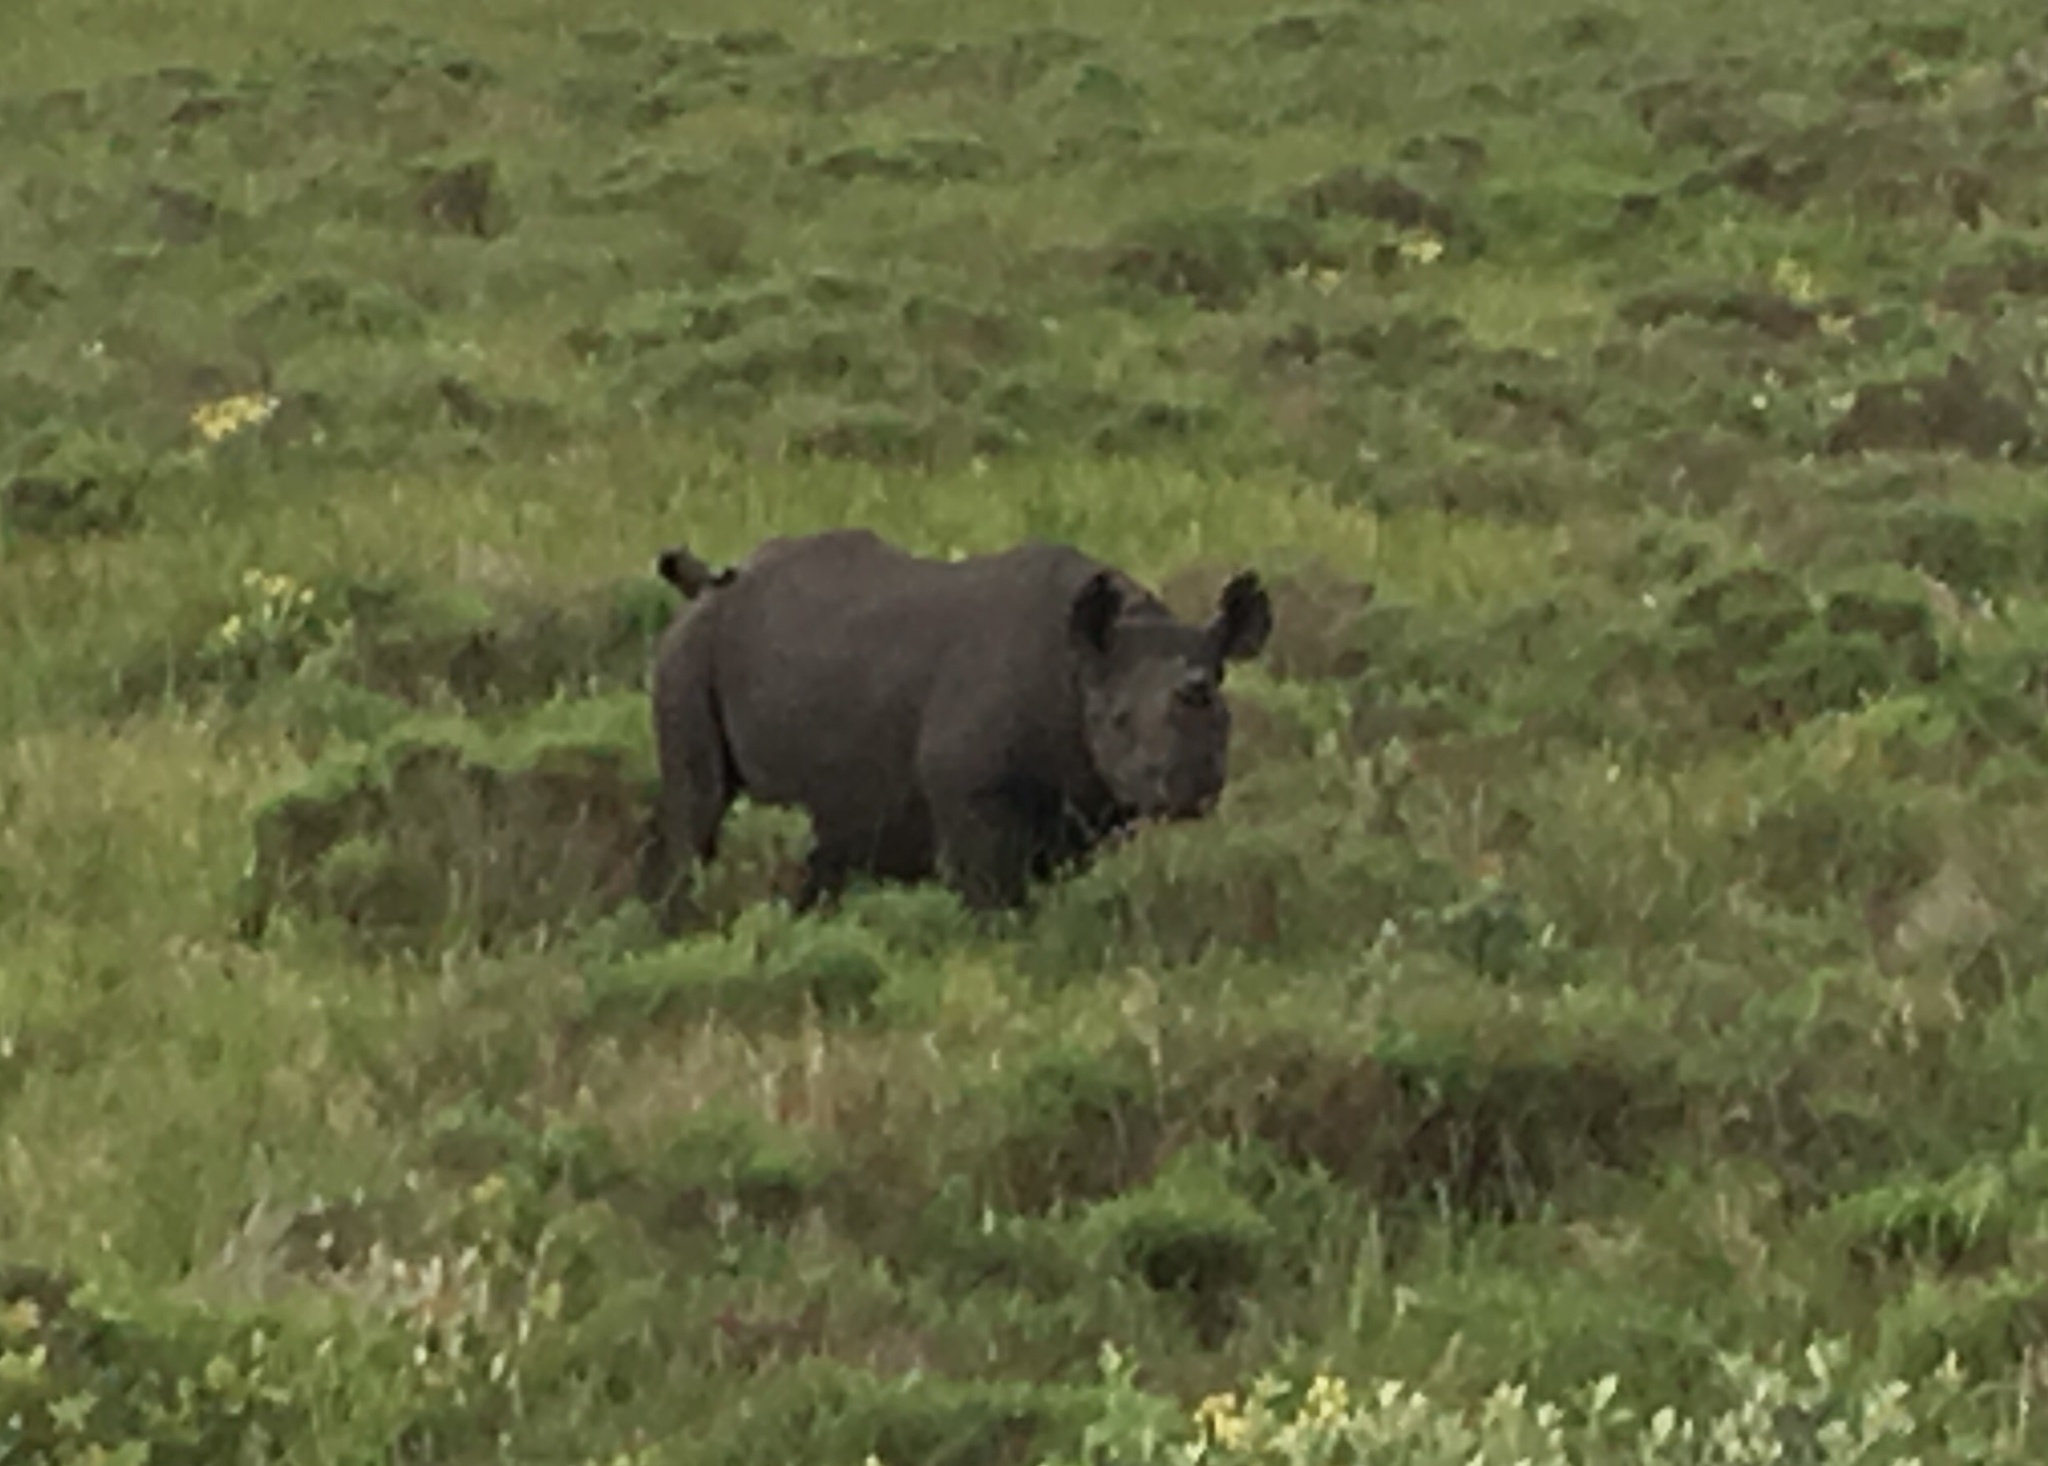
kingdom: Animalia
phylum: Chordata
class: Mammalia
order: Perissodactyla
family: Rhinocerotidae
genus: Diceros
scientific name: Diceros bicornis
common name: Black rhinoceros
